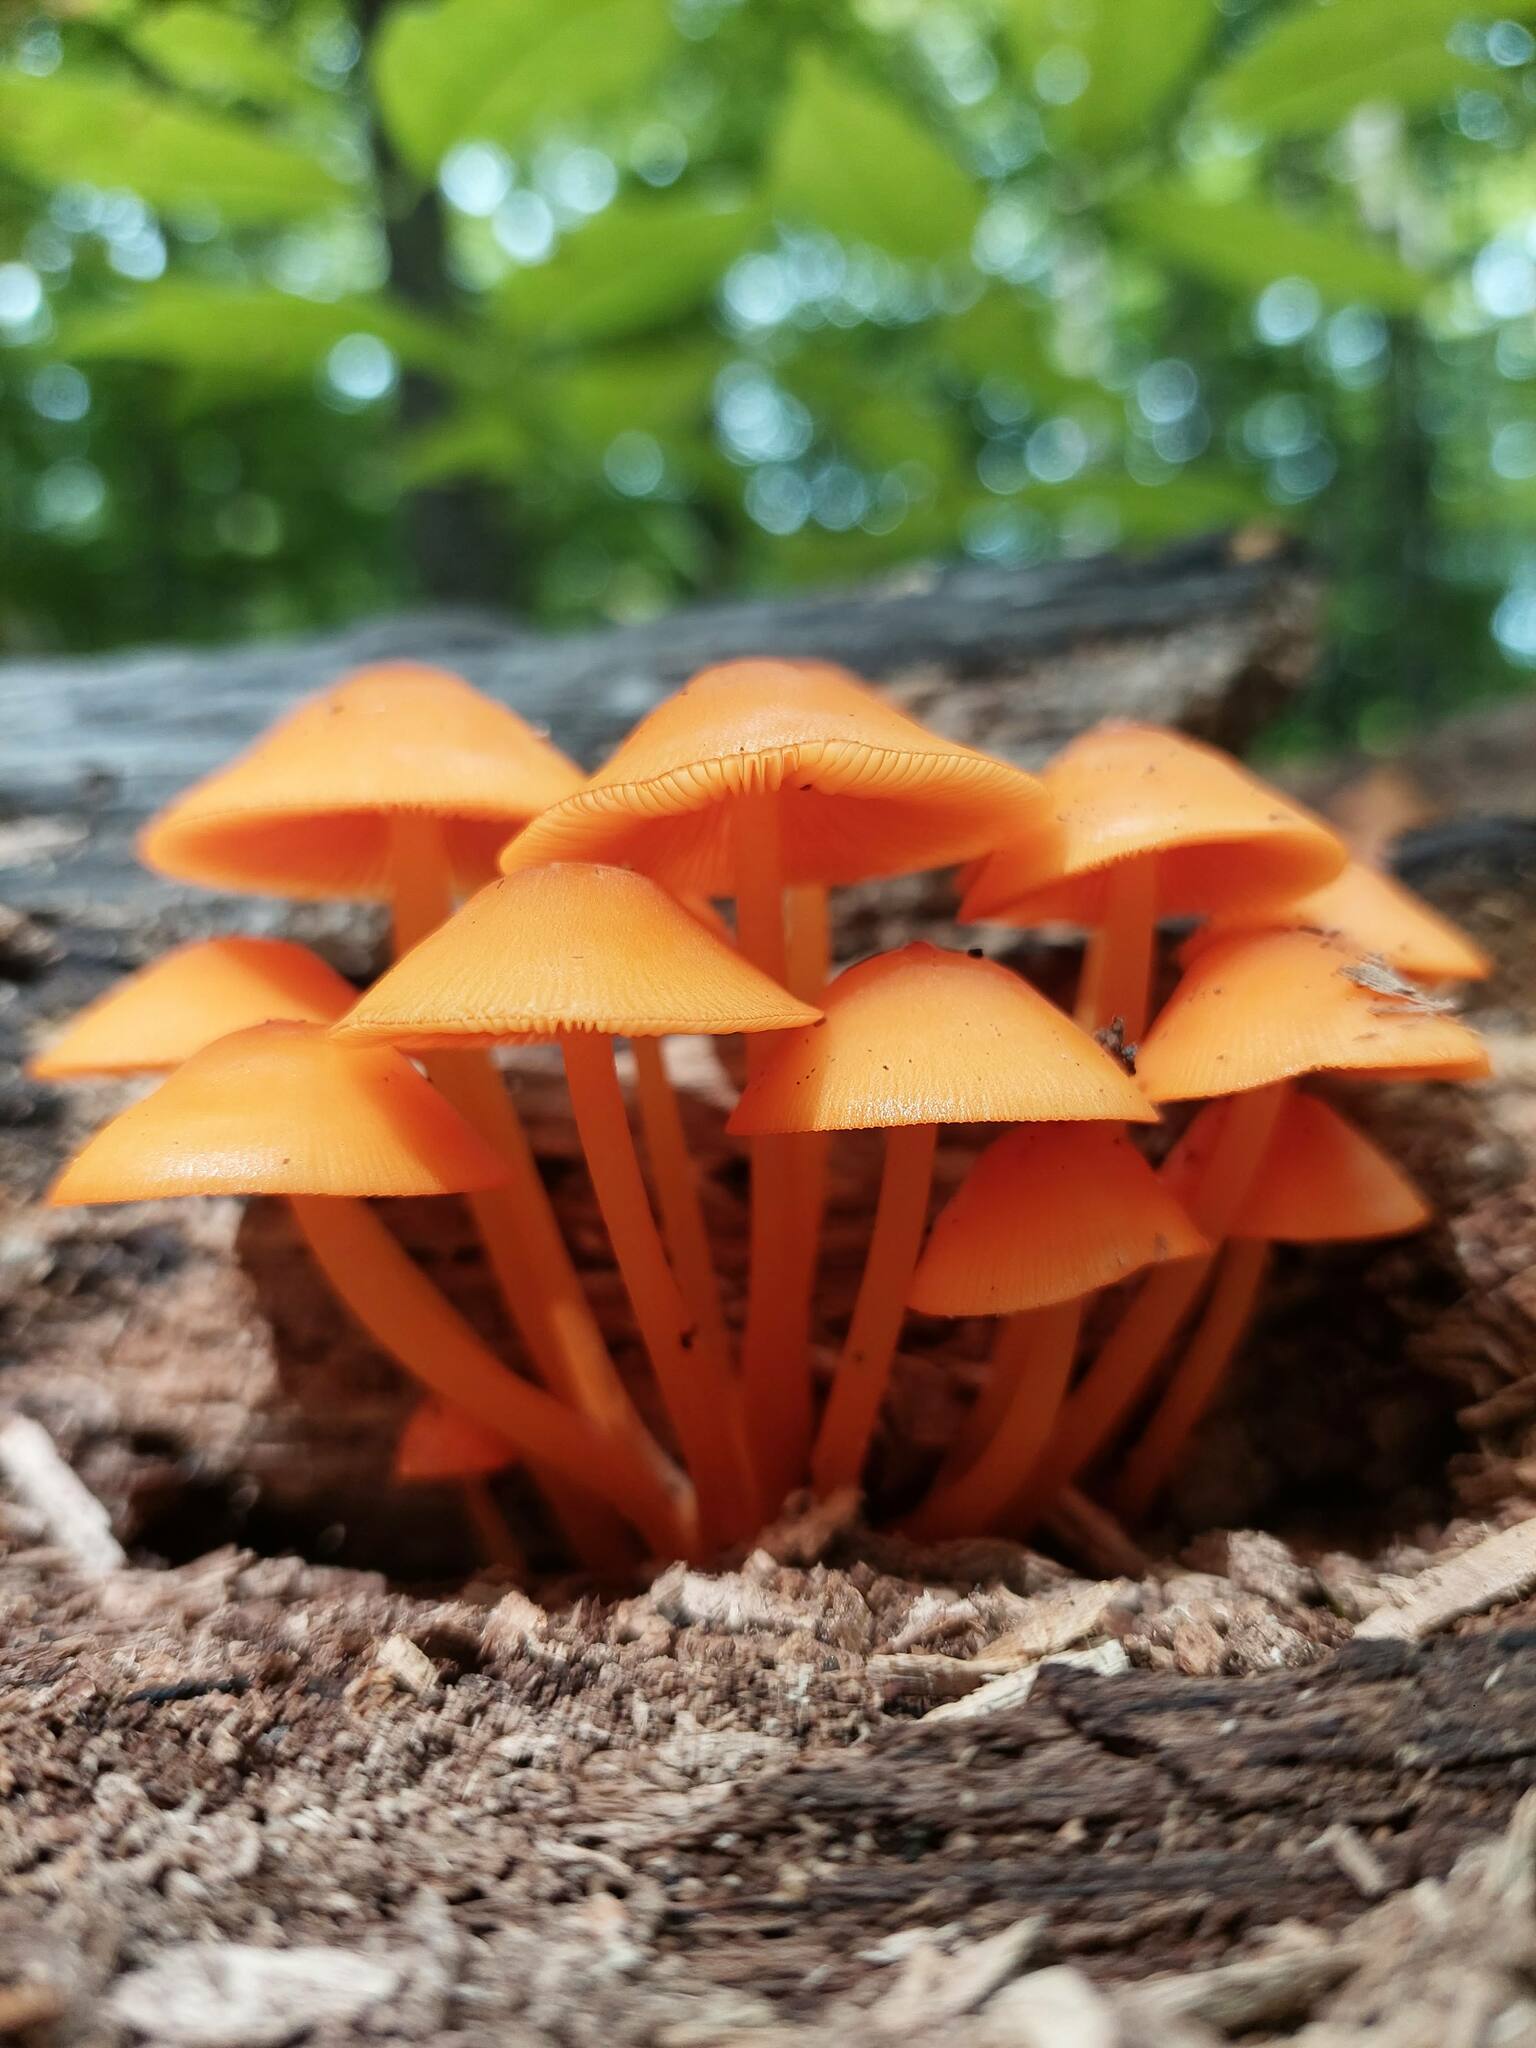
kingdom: Fungi
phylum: Basidiomycota
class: Agaricomycetes
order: Agaricales
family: Mycenaceae
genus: Mycena
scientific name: Mycena leaiana
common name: Orange mycena
